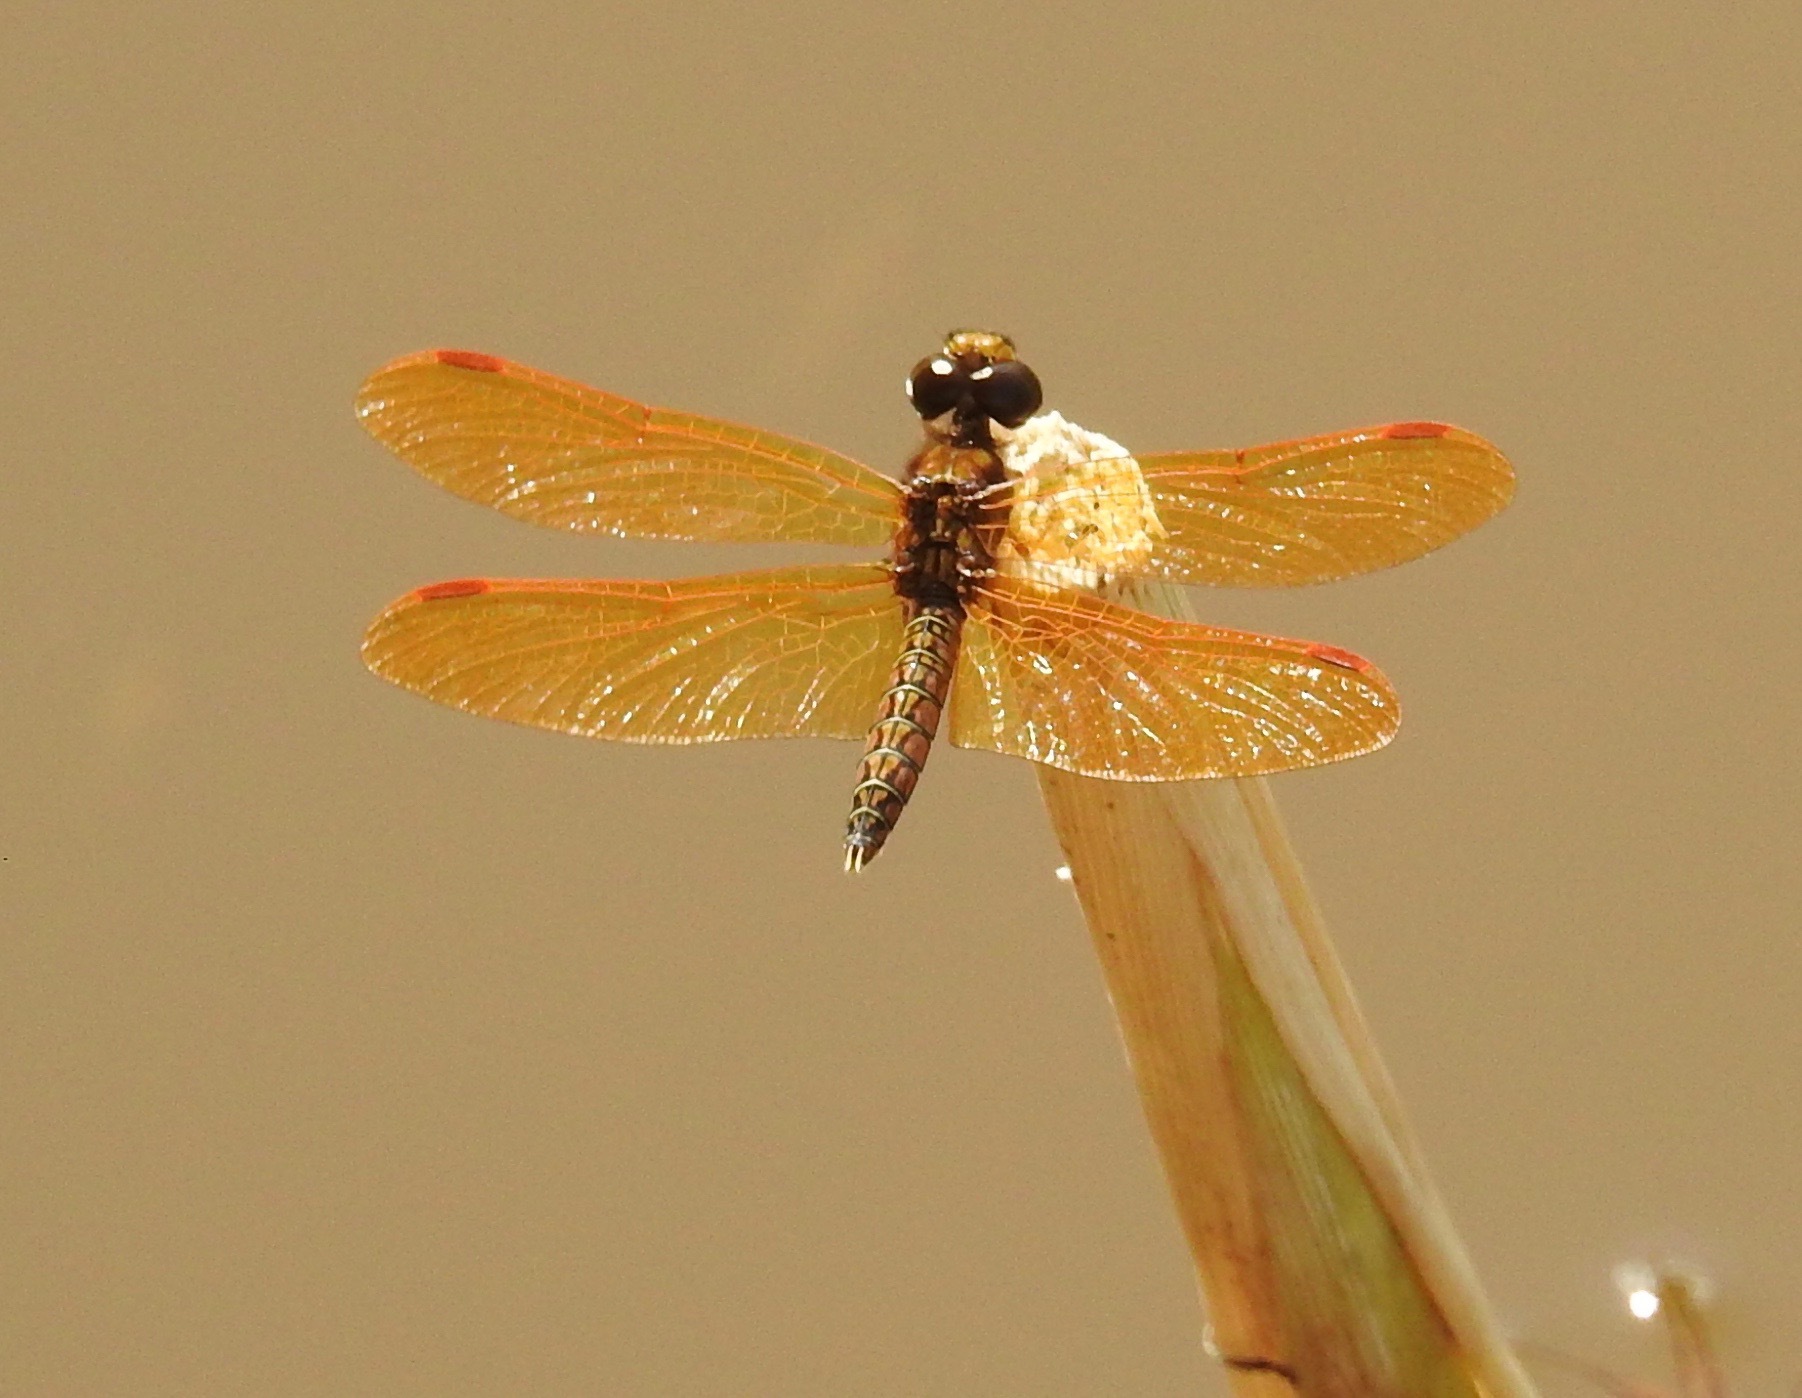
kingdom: Animalia
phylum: Arthropoda
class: Insecta
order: Odonata
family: Libellulidae
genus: Perithemis
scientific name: Perithemis tenera
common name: Eastern amberwing
